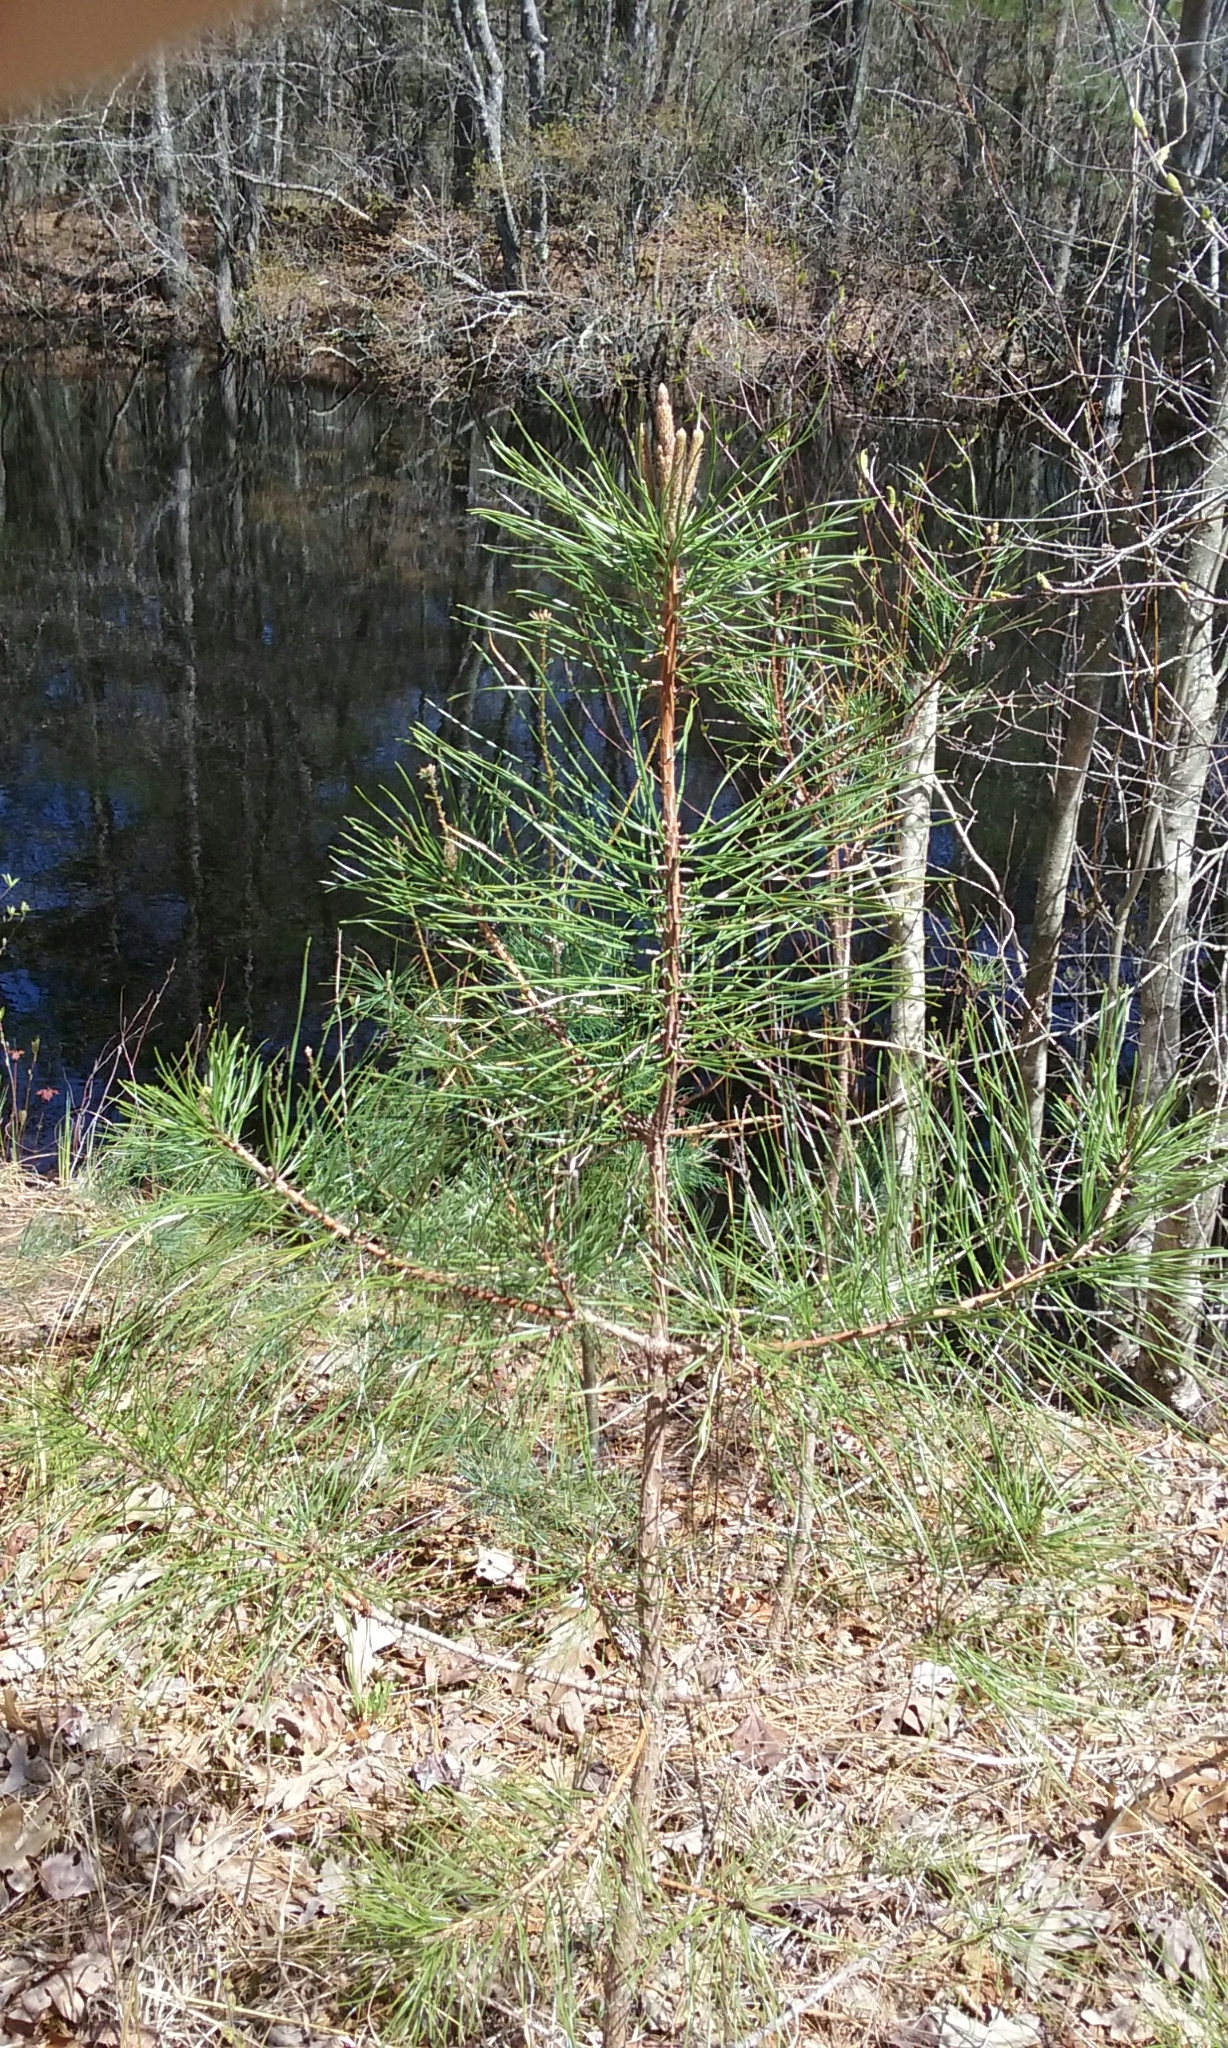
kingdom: Plantae
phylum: Tracheophyta
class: Pinopsida
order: Pinales
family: Pinaceae
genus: Pinus
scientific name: Pinus rigida
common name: Pitch pine
